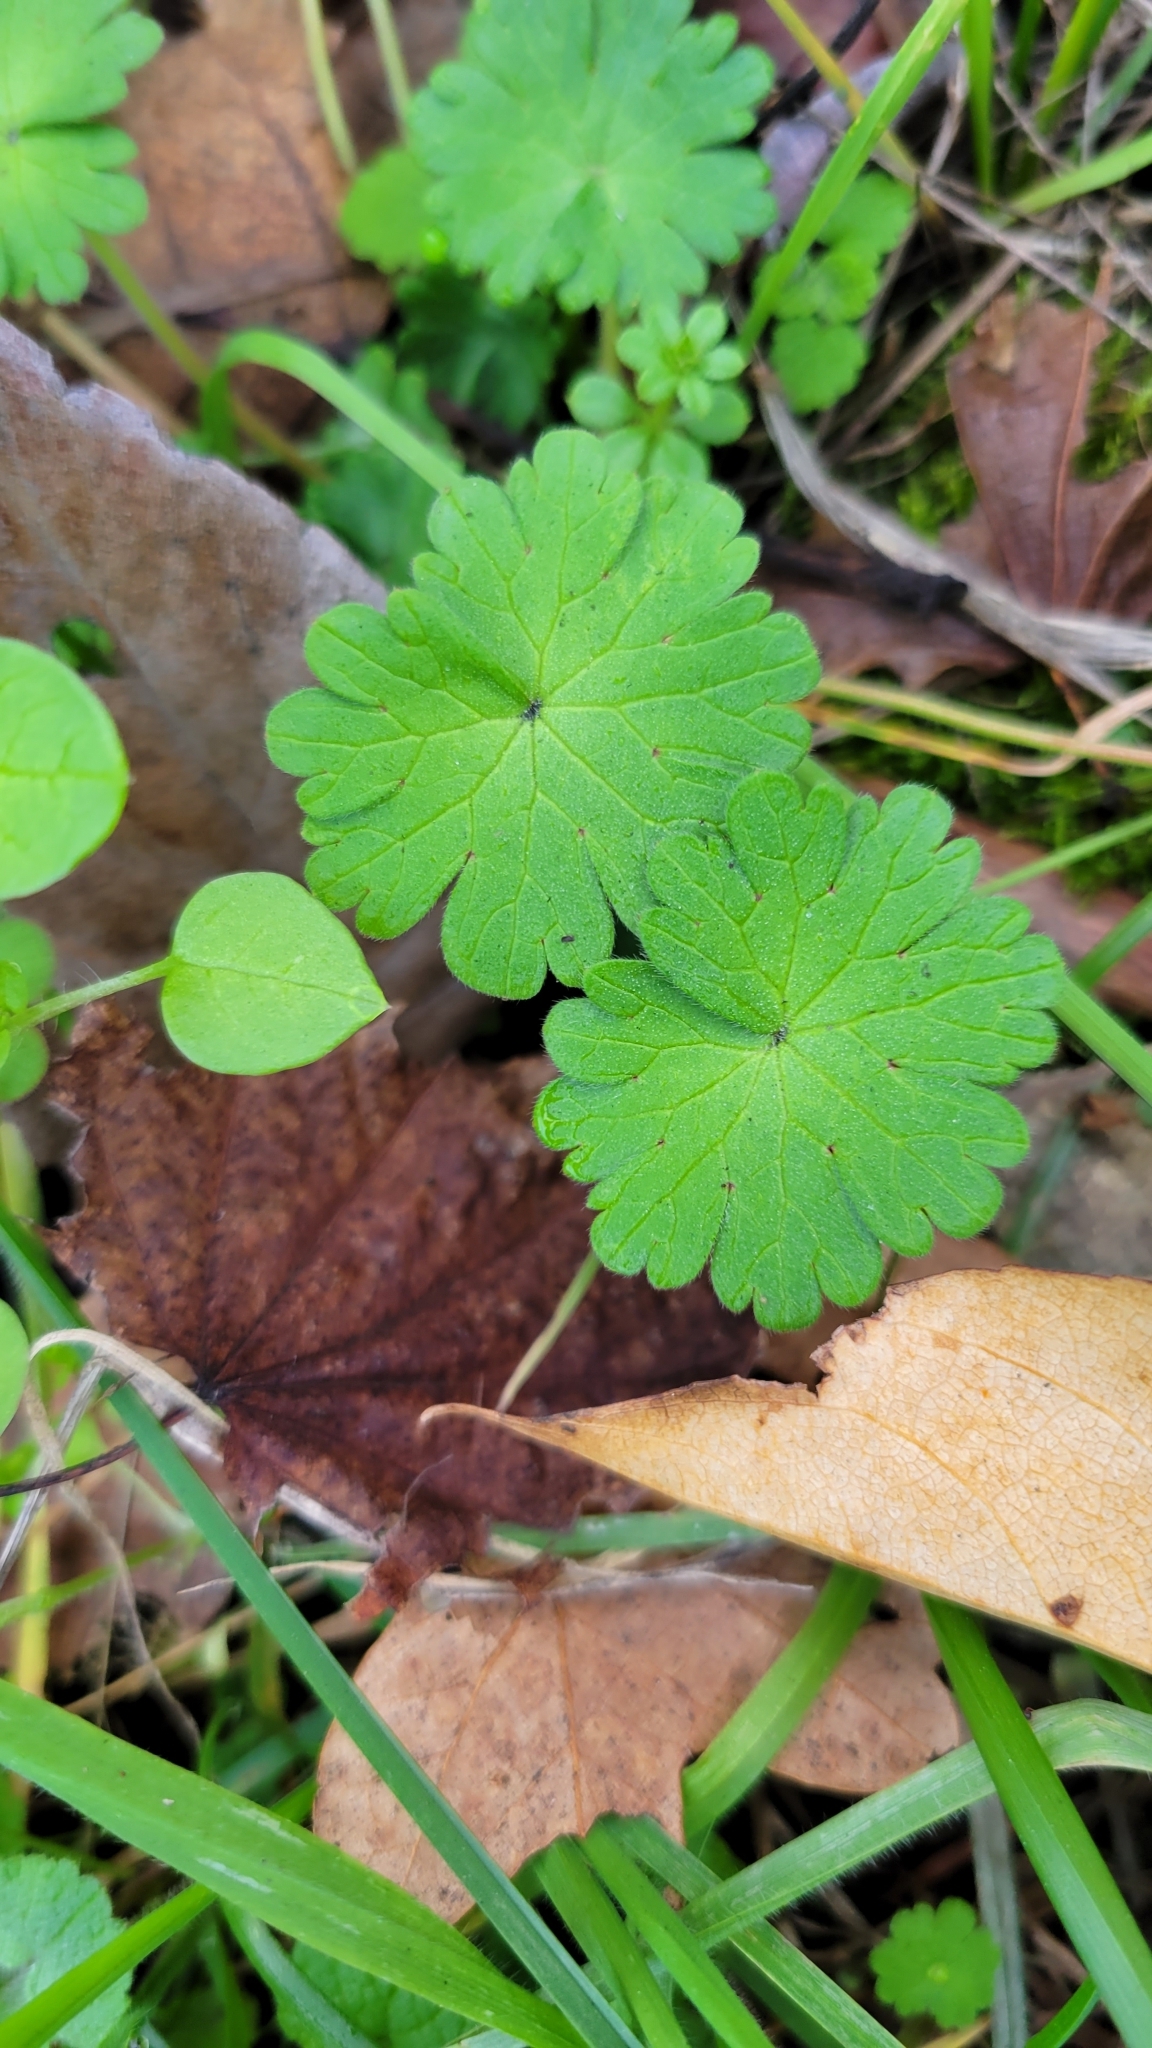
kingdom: Plantae
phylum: Tracheophyta
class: Magnoliopsida
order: Geraniales
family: Geraniaceae
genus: Geranium
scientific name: Geranium molle
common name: Dove's-foot crane's-bill
